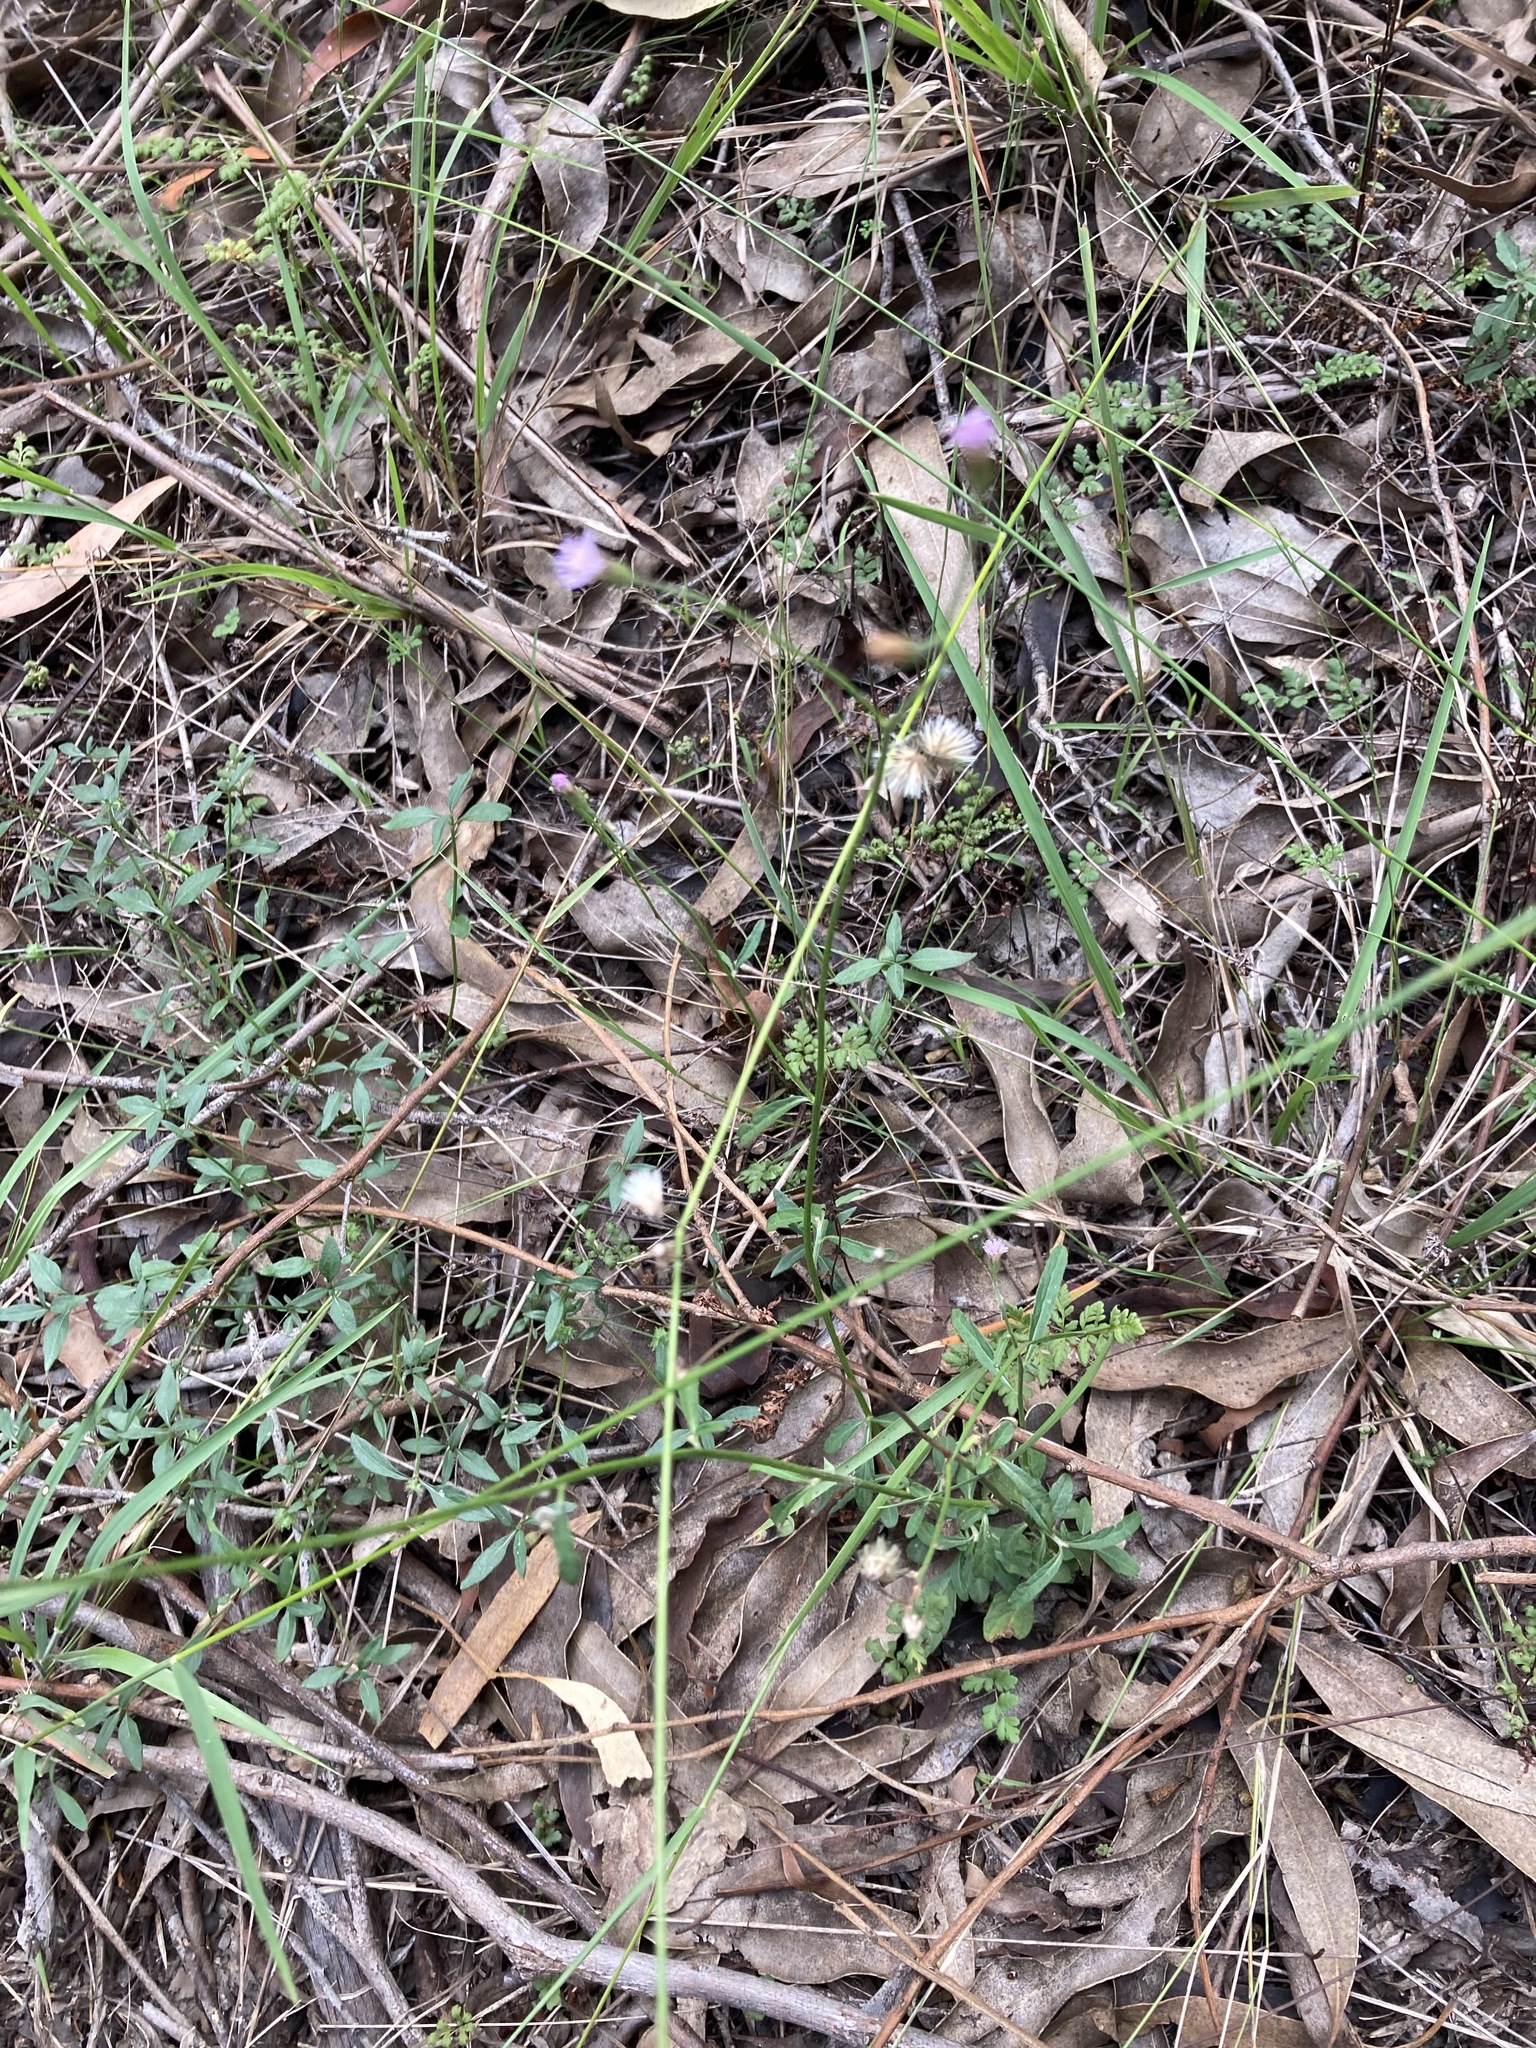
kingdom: Plantae
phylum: Tracheophyta
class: Magnoliopsida
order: Asterales
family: Asteraceae
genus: Cyanthillium
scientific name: Cyanthillium cinereum
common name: Little ironweed
